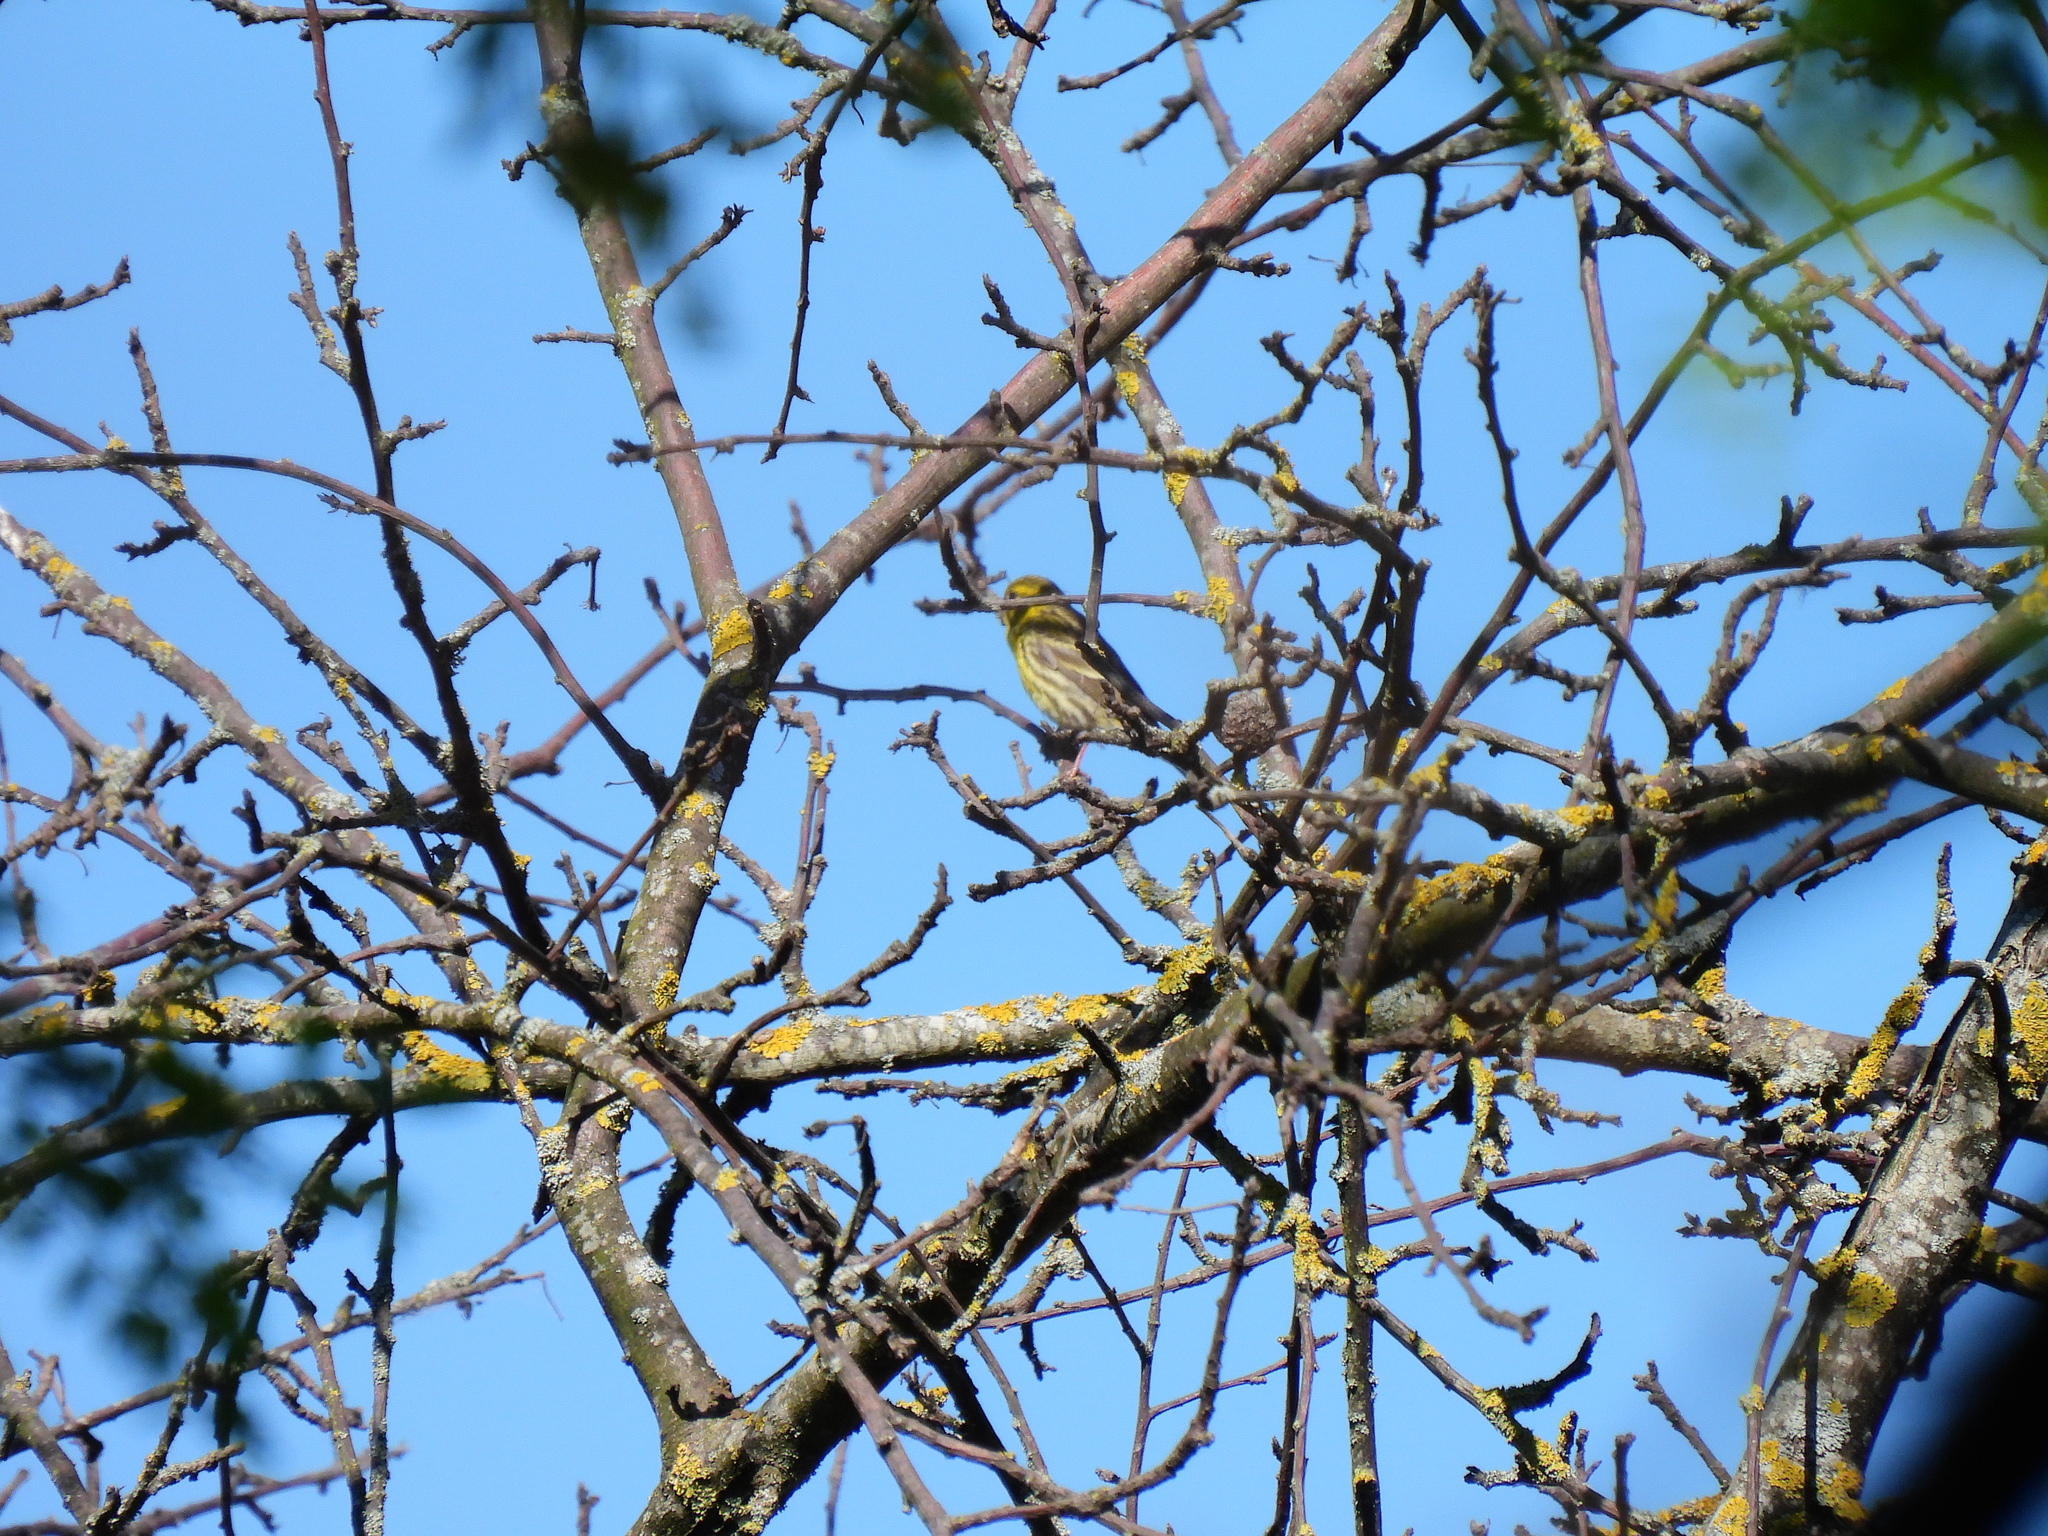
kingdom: Animalia
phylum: Chordata
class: Aves
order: Passeriformes
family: Fringillidae
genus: Serinus
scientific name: Serinus serinus
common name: European serin
